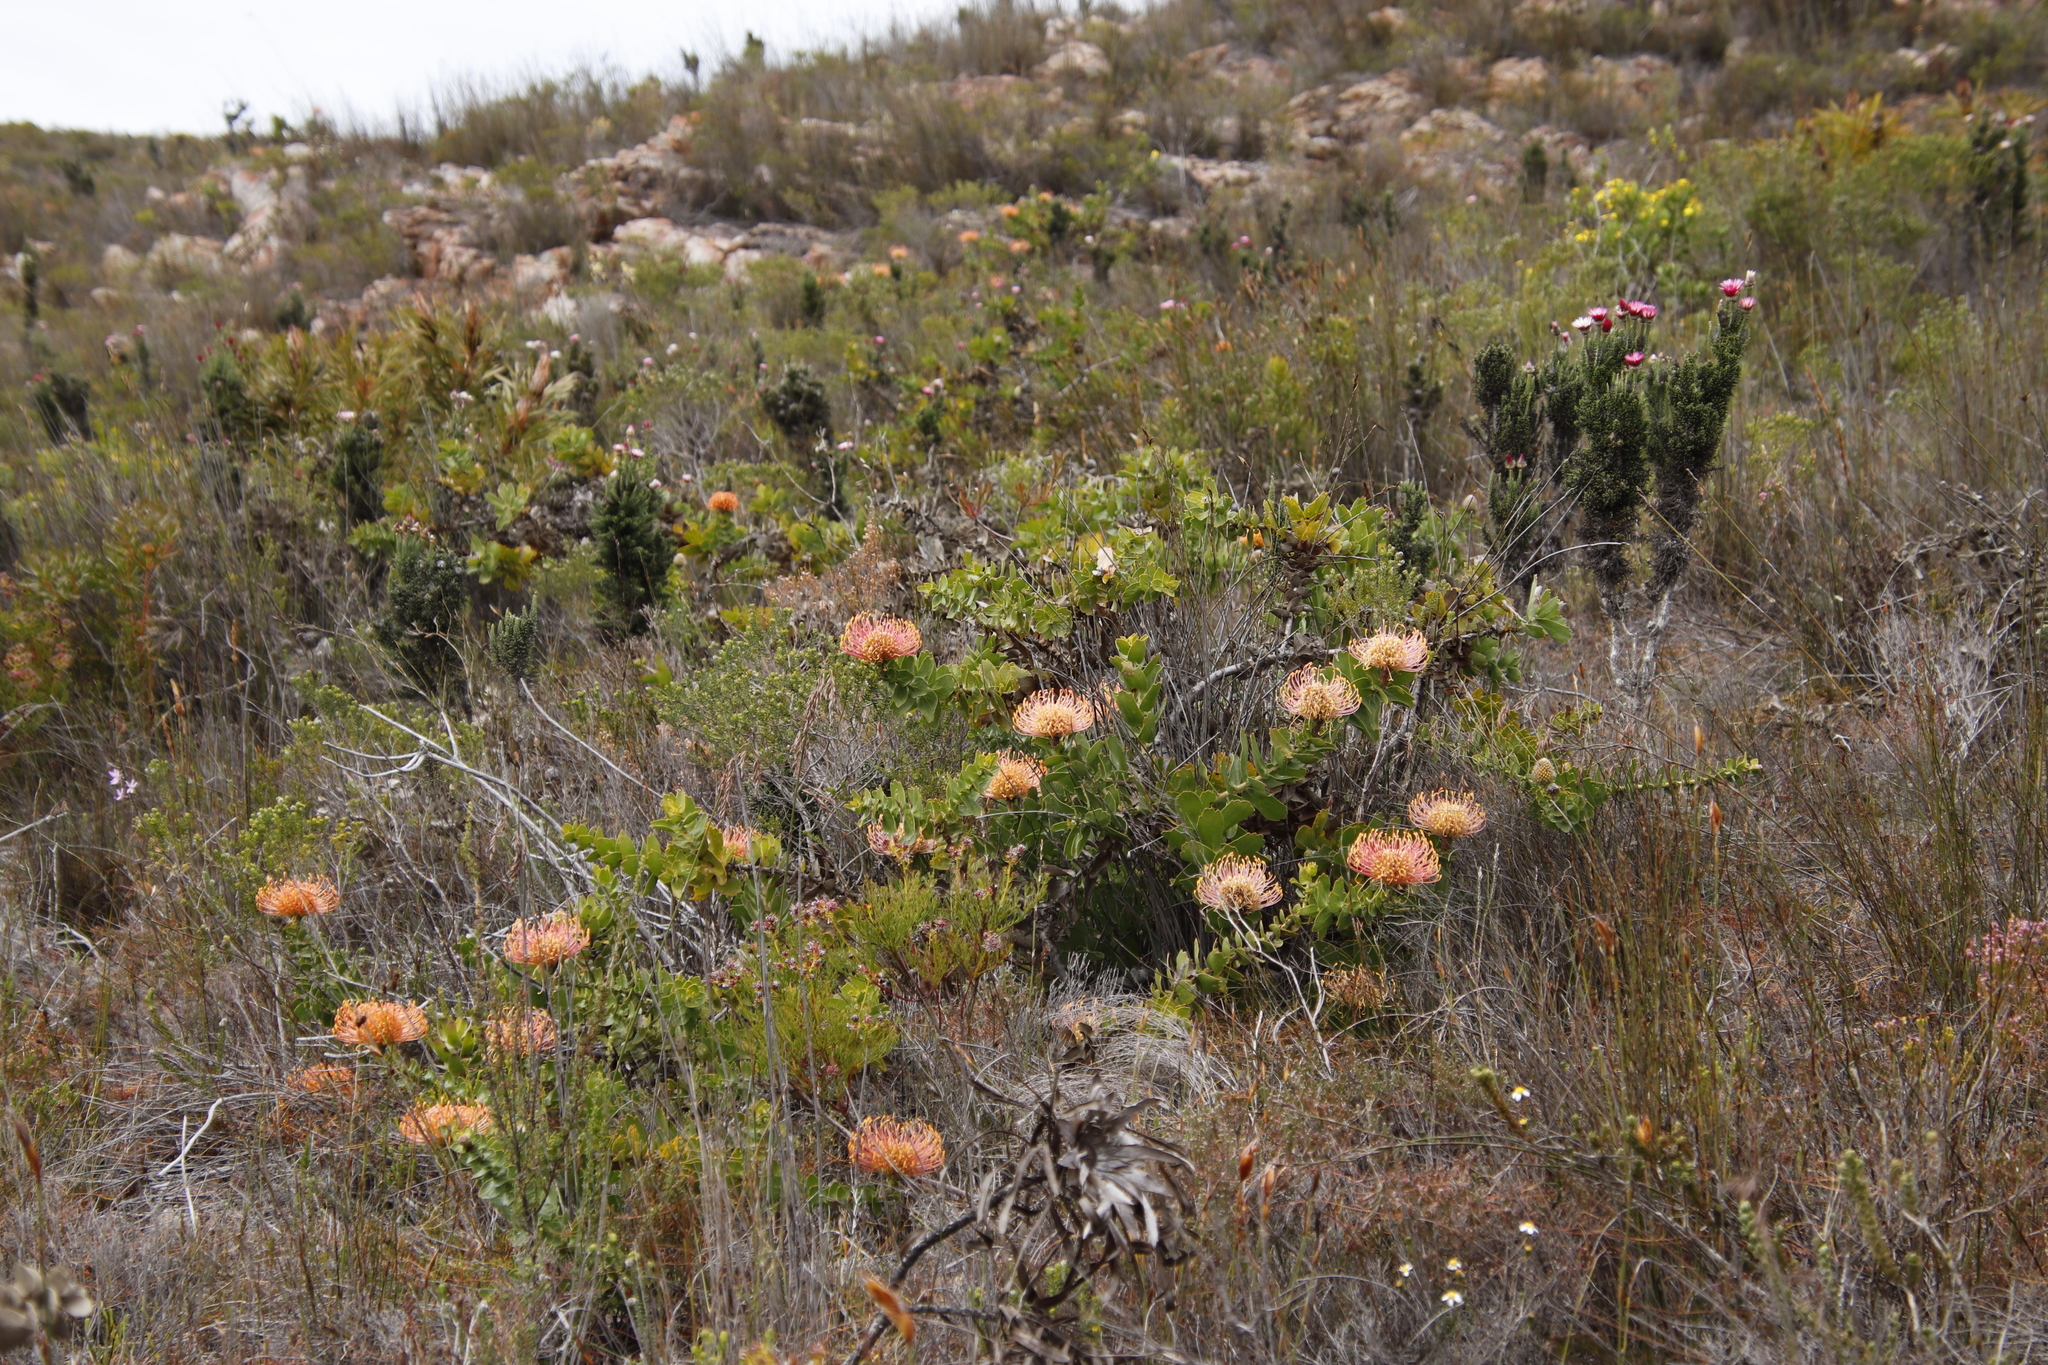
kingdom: Plantae
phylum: Tracheophyta
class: Magnoliopsida
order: Proteales
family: Proteaceae
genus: Leucospermum
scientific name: Leucospermum cordifolium
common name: Red pincushion-protea
